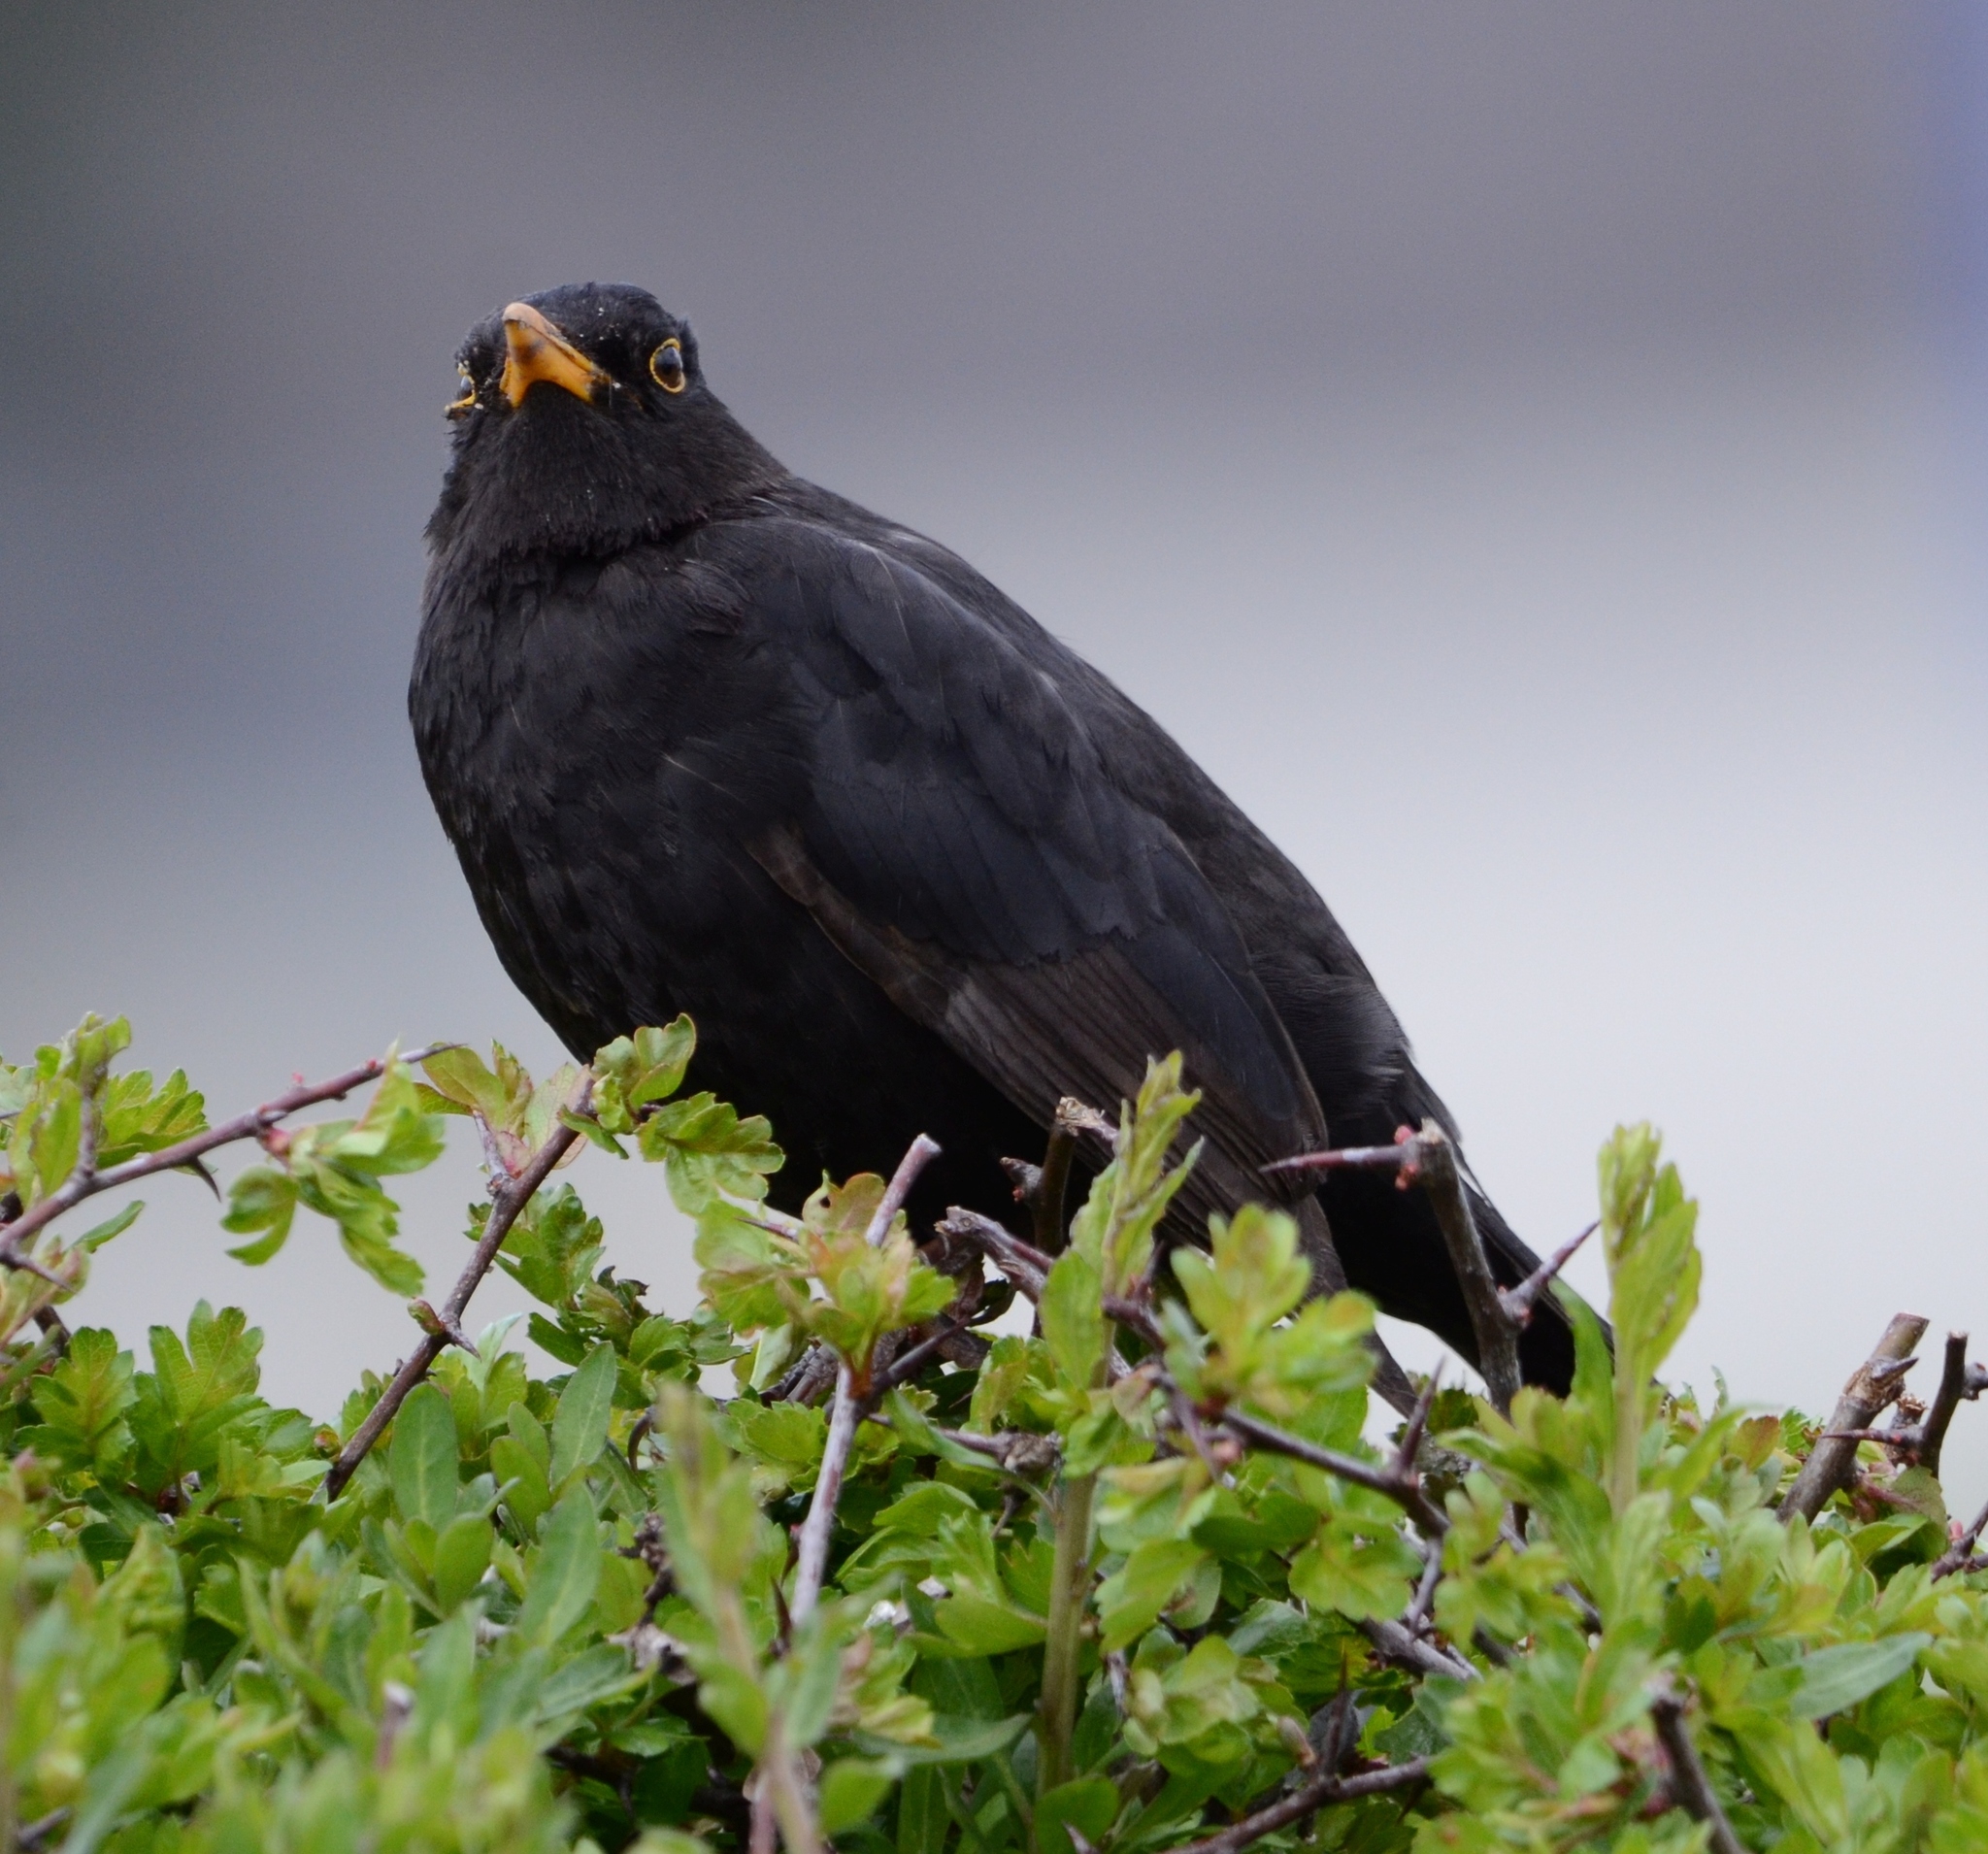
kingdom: Animalia
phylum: Chordata
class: Aves
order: Passeriformes
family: Turdidae
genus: Turdus
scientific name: Turdus merula
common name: Common blackbird
